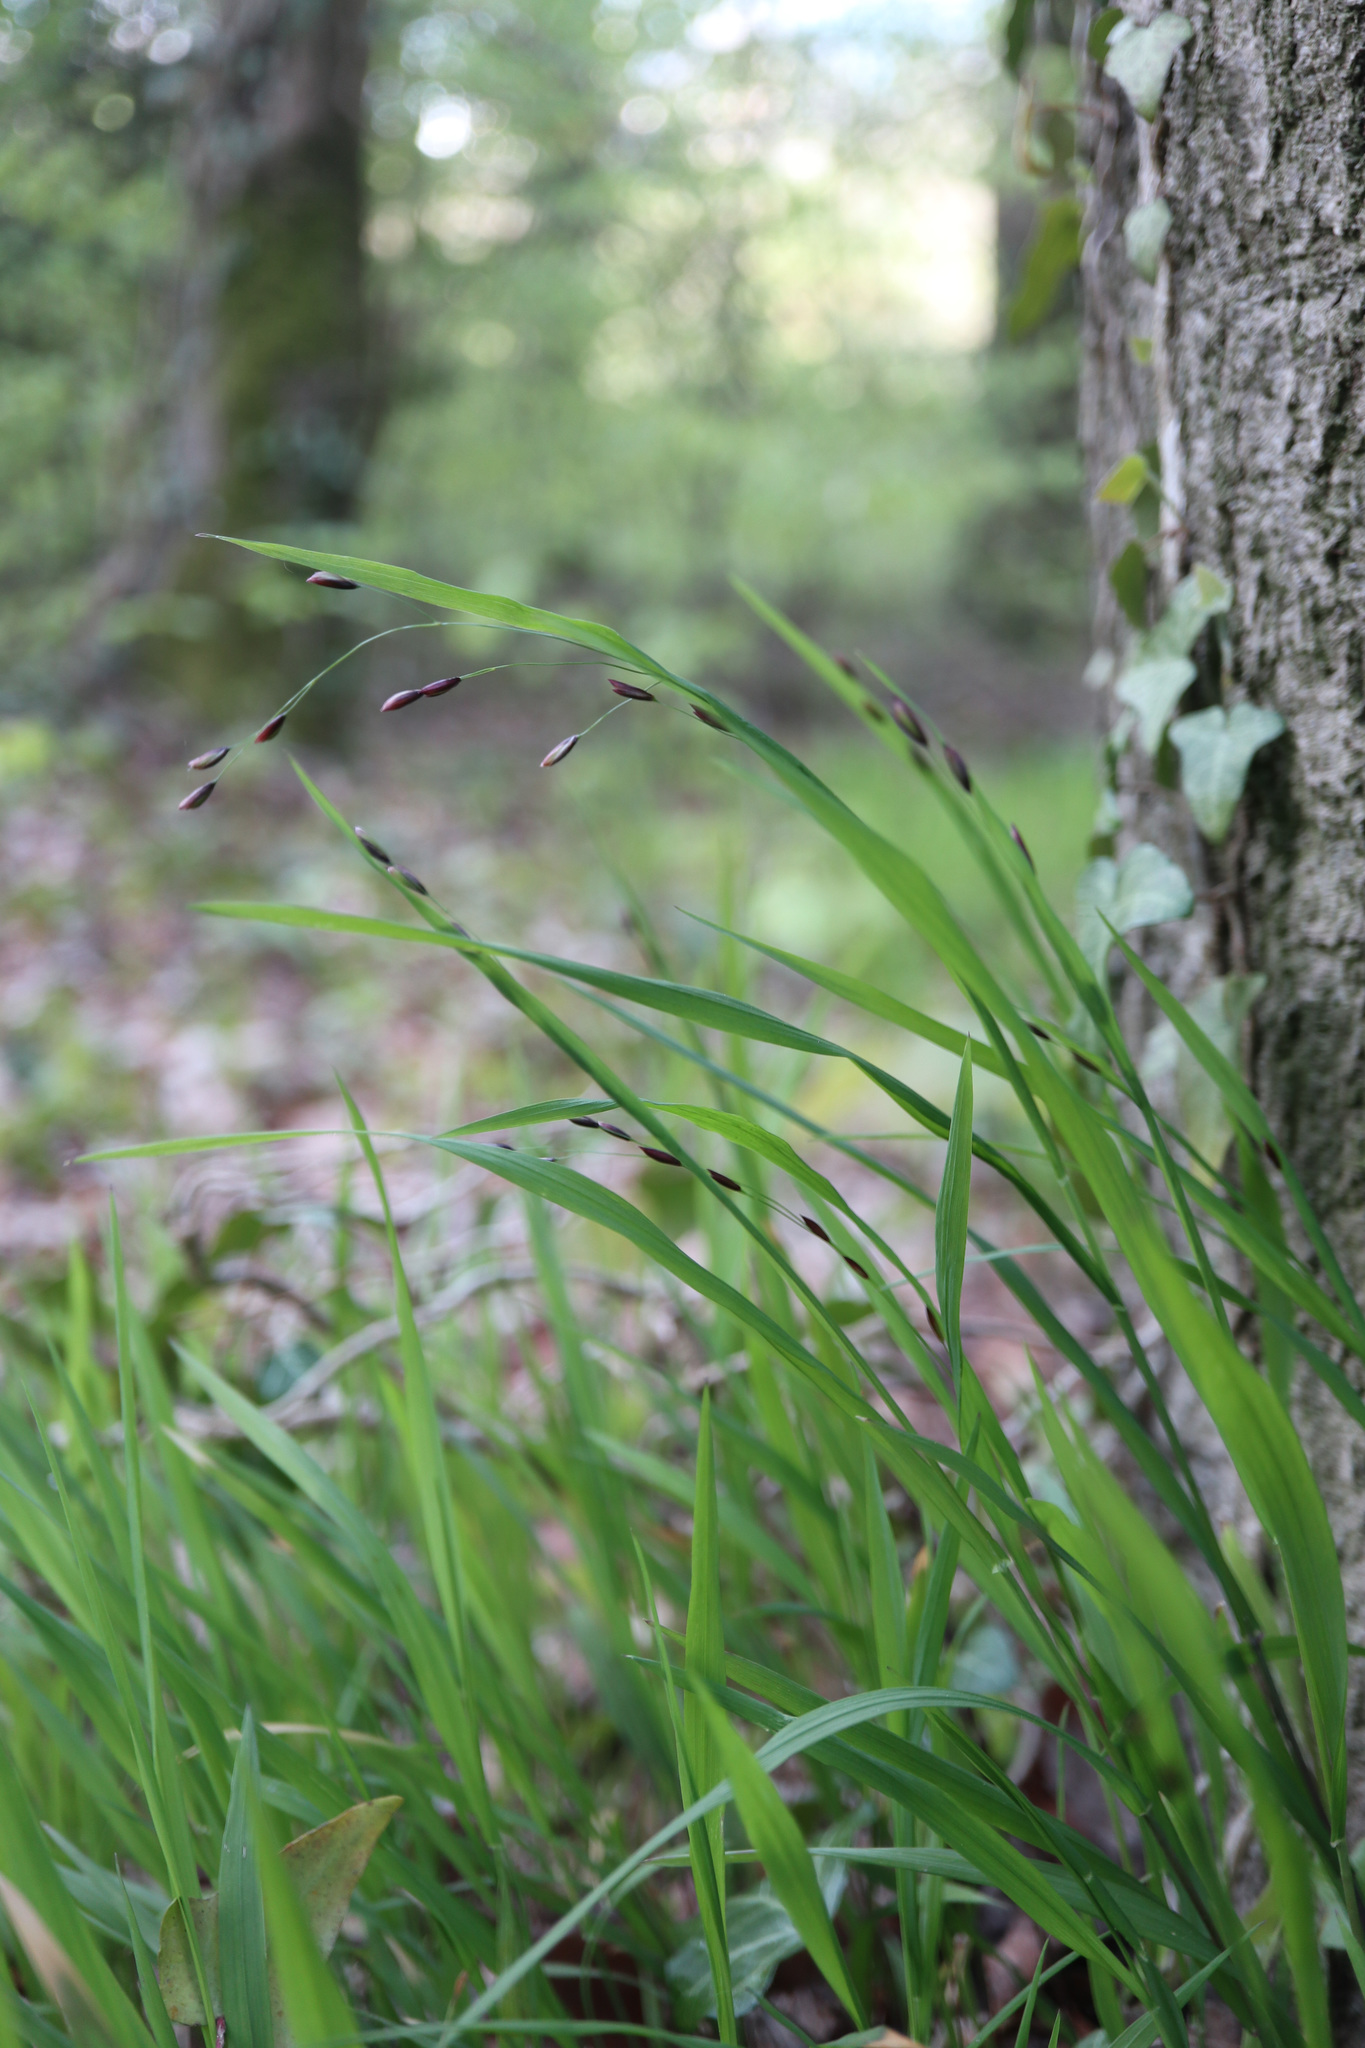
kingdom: Plantae
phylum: Tracheophyta
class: Liliopsida
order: Poales
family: Poaceae
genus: Melica
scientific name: Melica uniflora
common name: Wood melick
